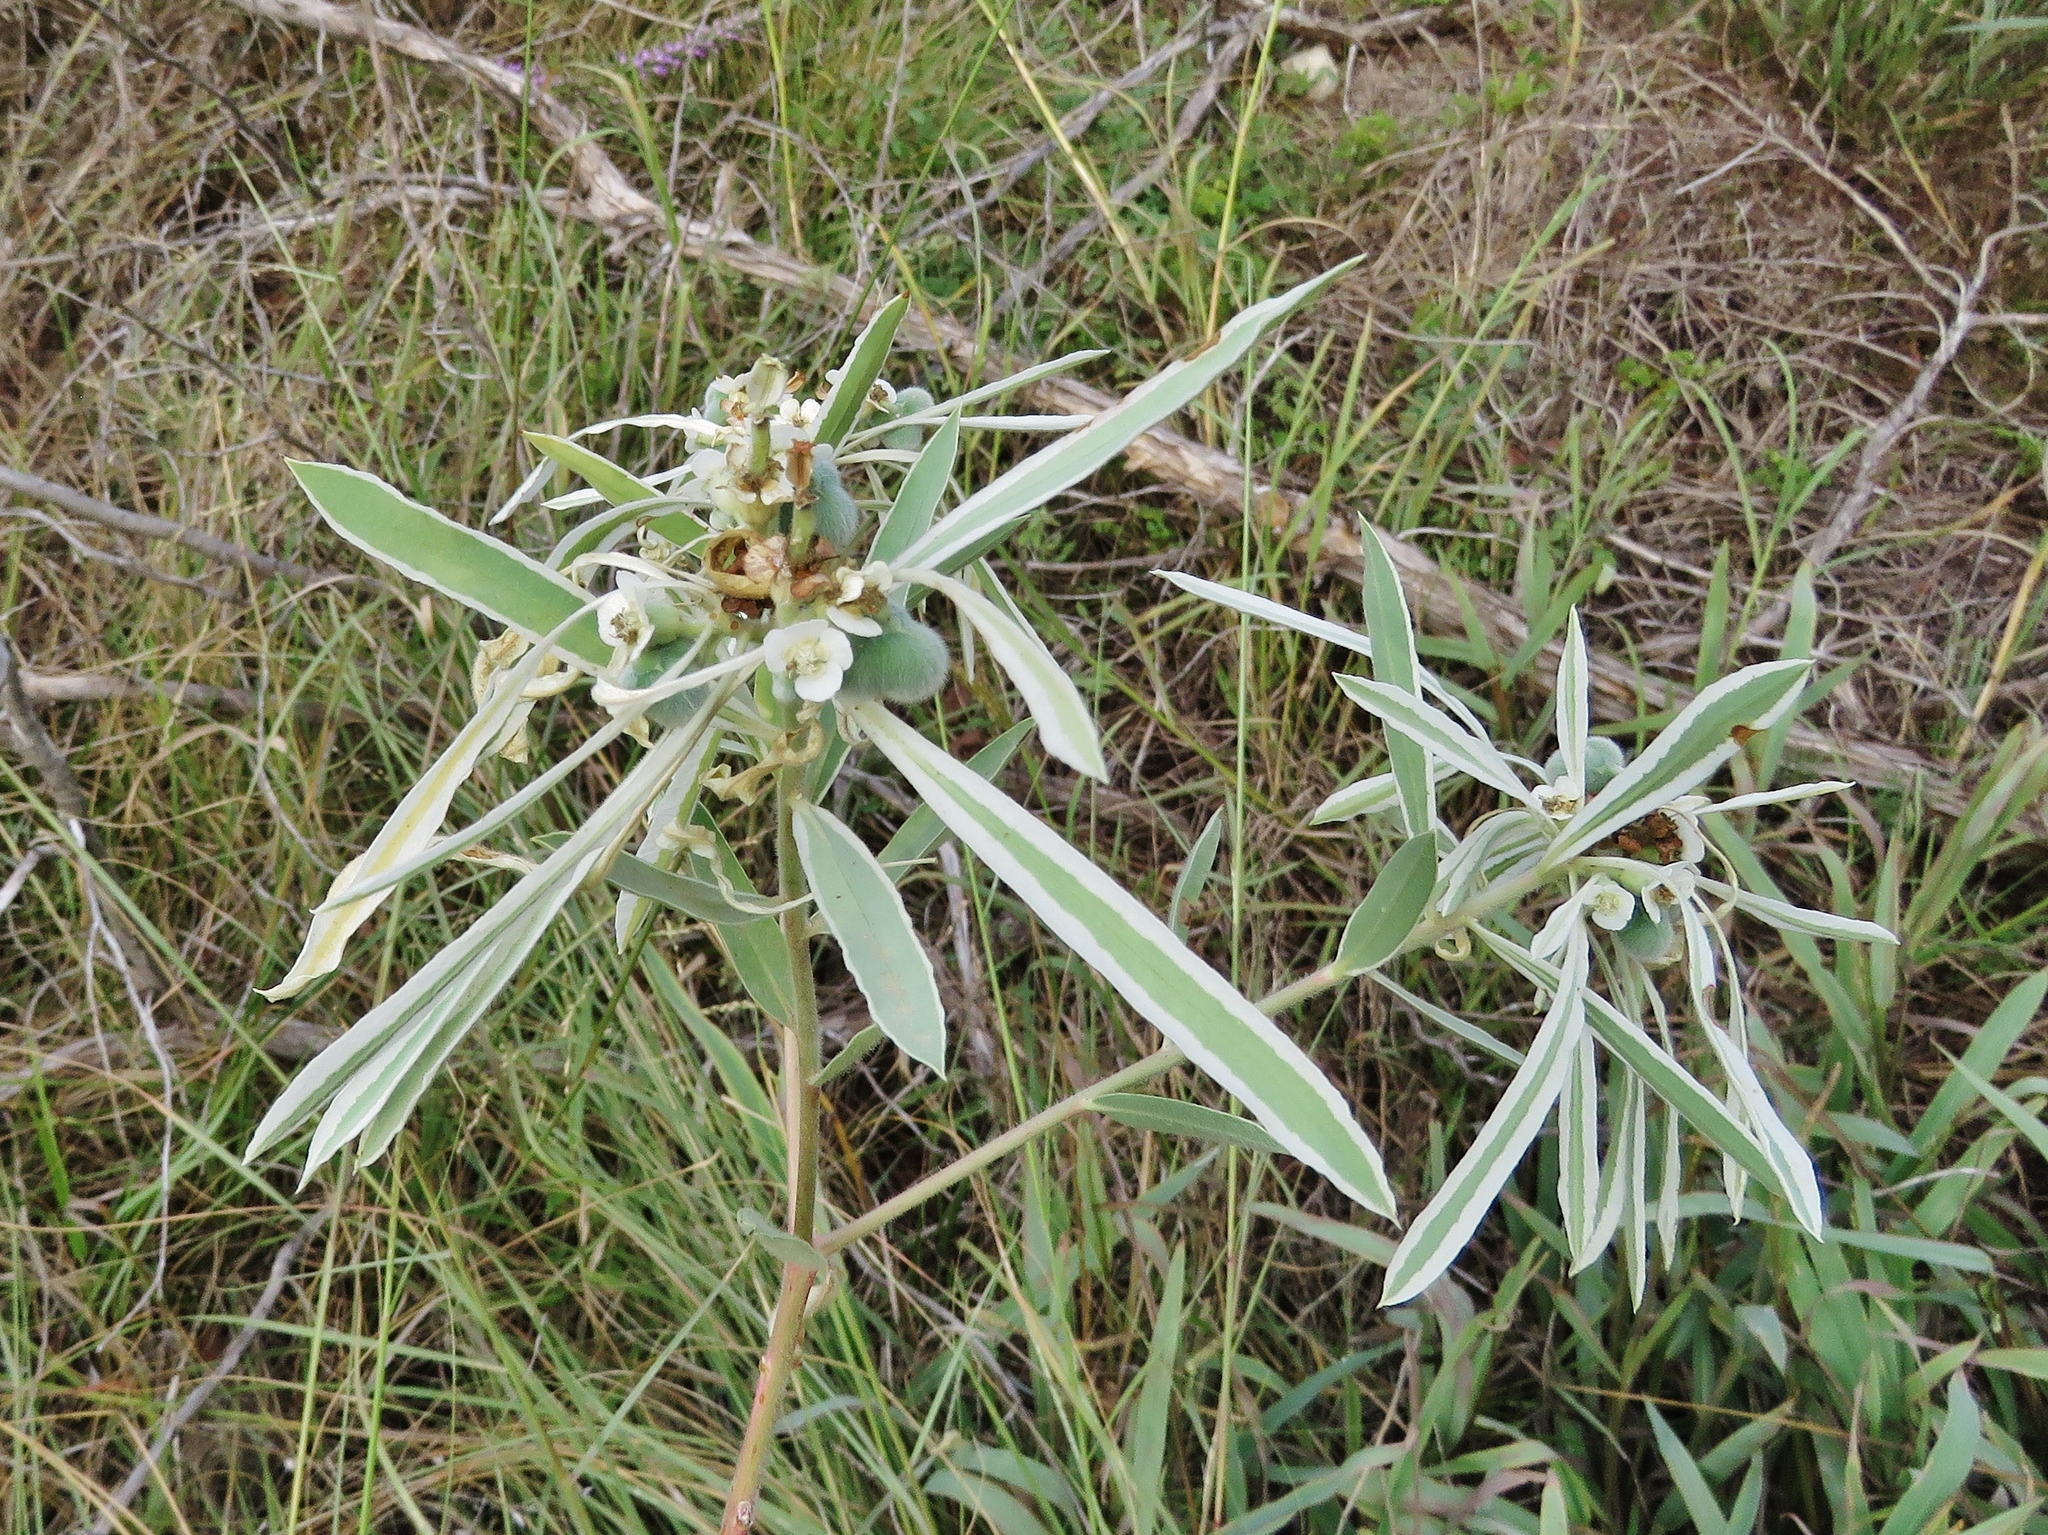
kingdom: Plantae
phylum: Tracheophyta
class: Magnoliopsida
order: Malpighiales
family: Euphorbiaceae
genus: Euphorbia
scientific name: Euphorbia bicolor
